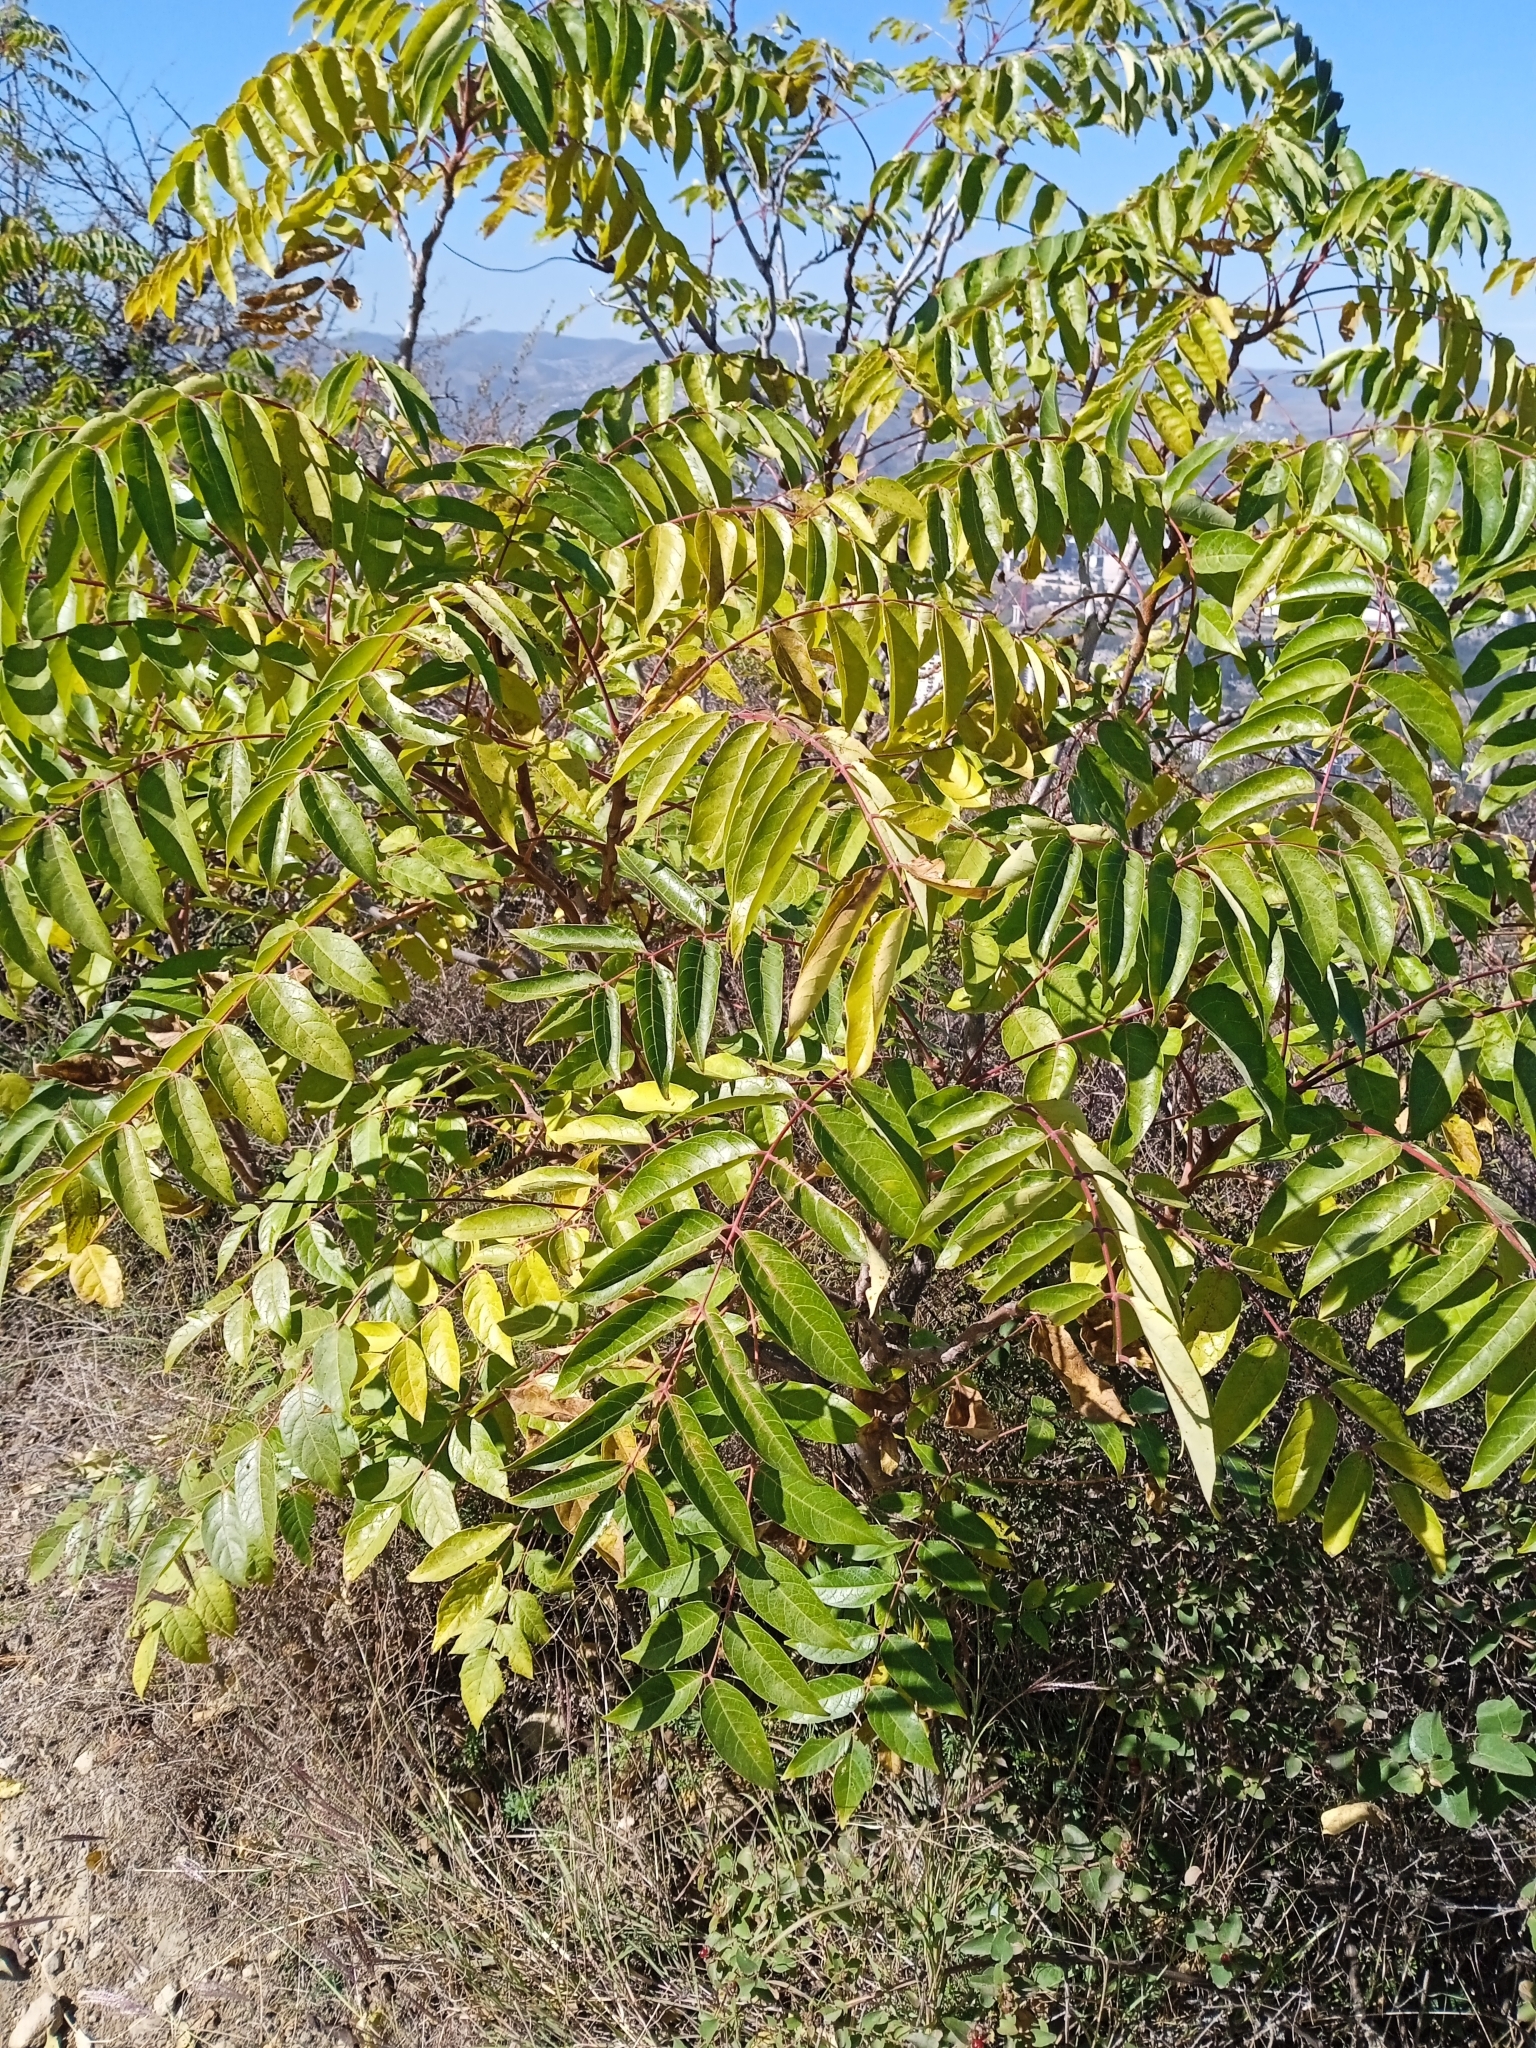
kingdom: Plantae
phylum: Tracheophyta
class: Magnoliopsida
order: Sapindales
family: Simaroubaceae
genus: Ailanthus
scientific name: Ailanthus altissima
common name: Tree-of-heaven
